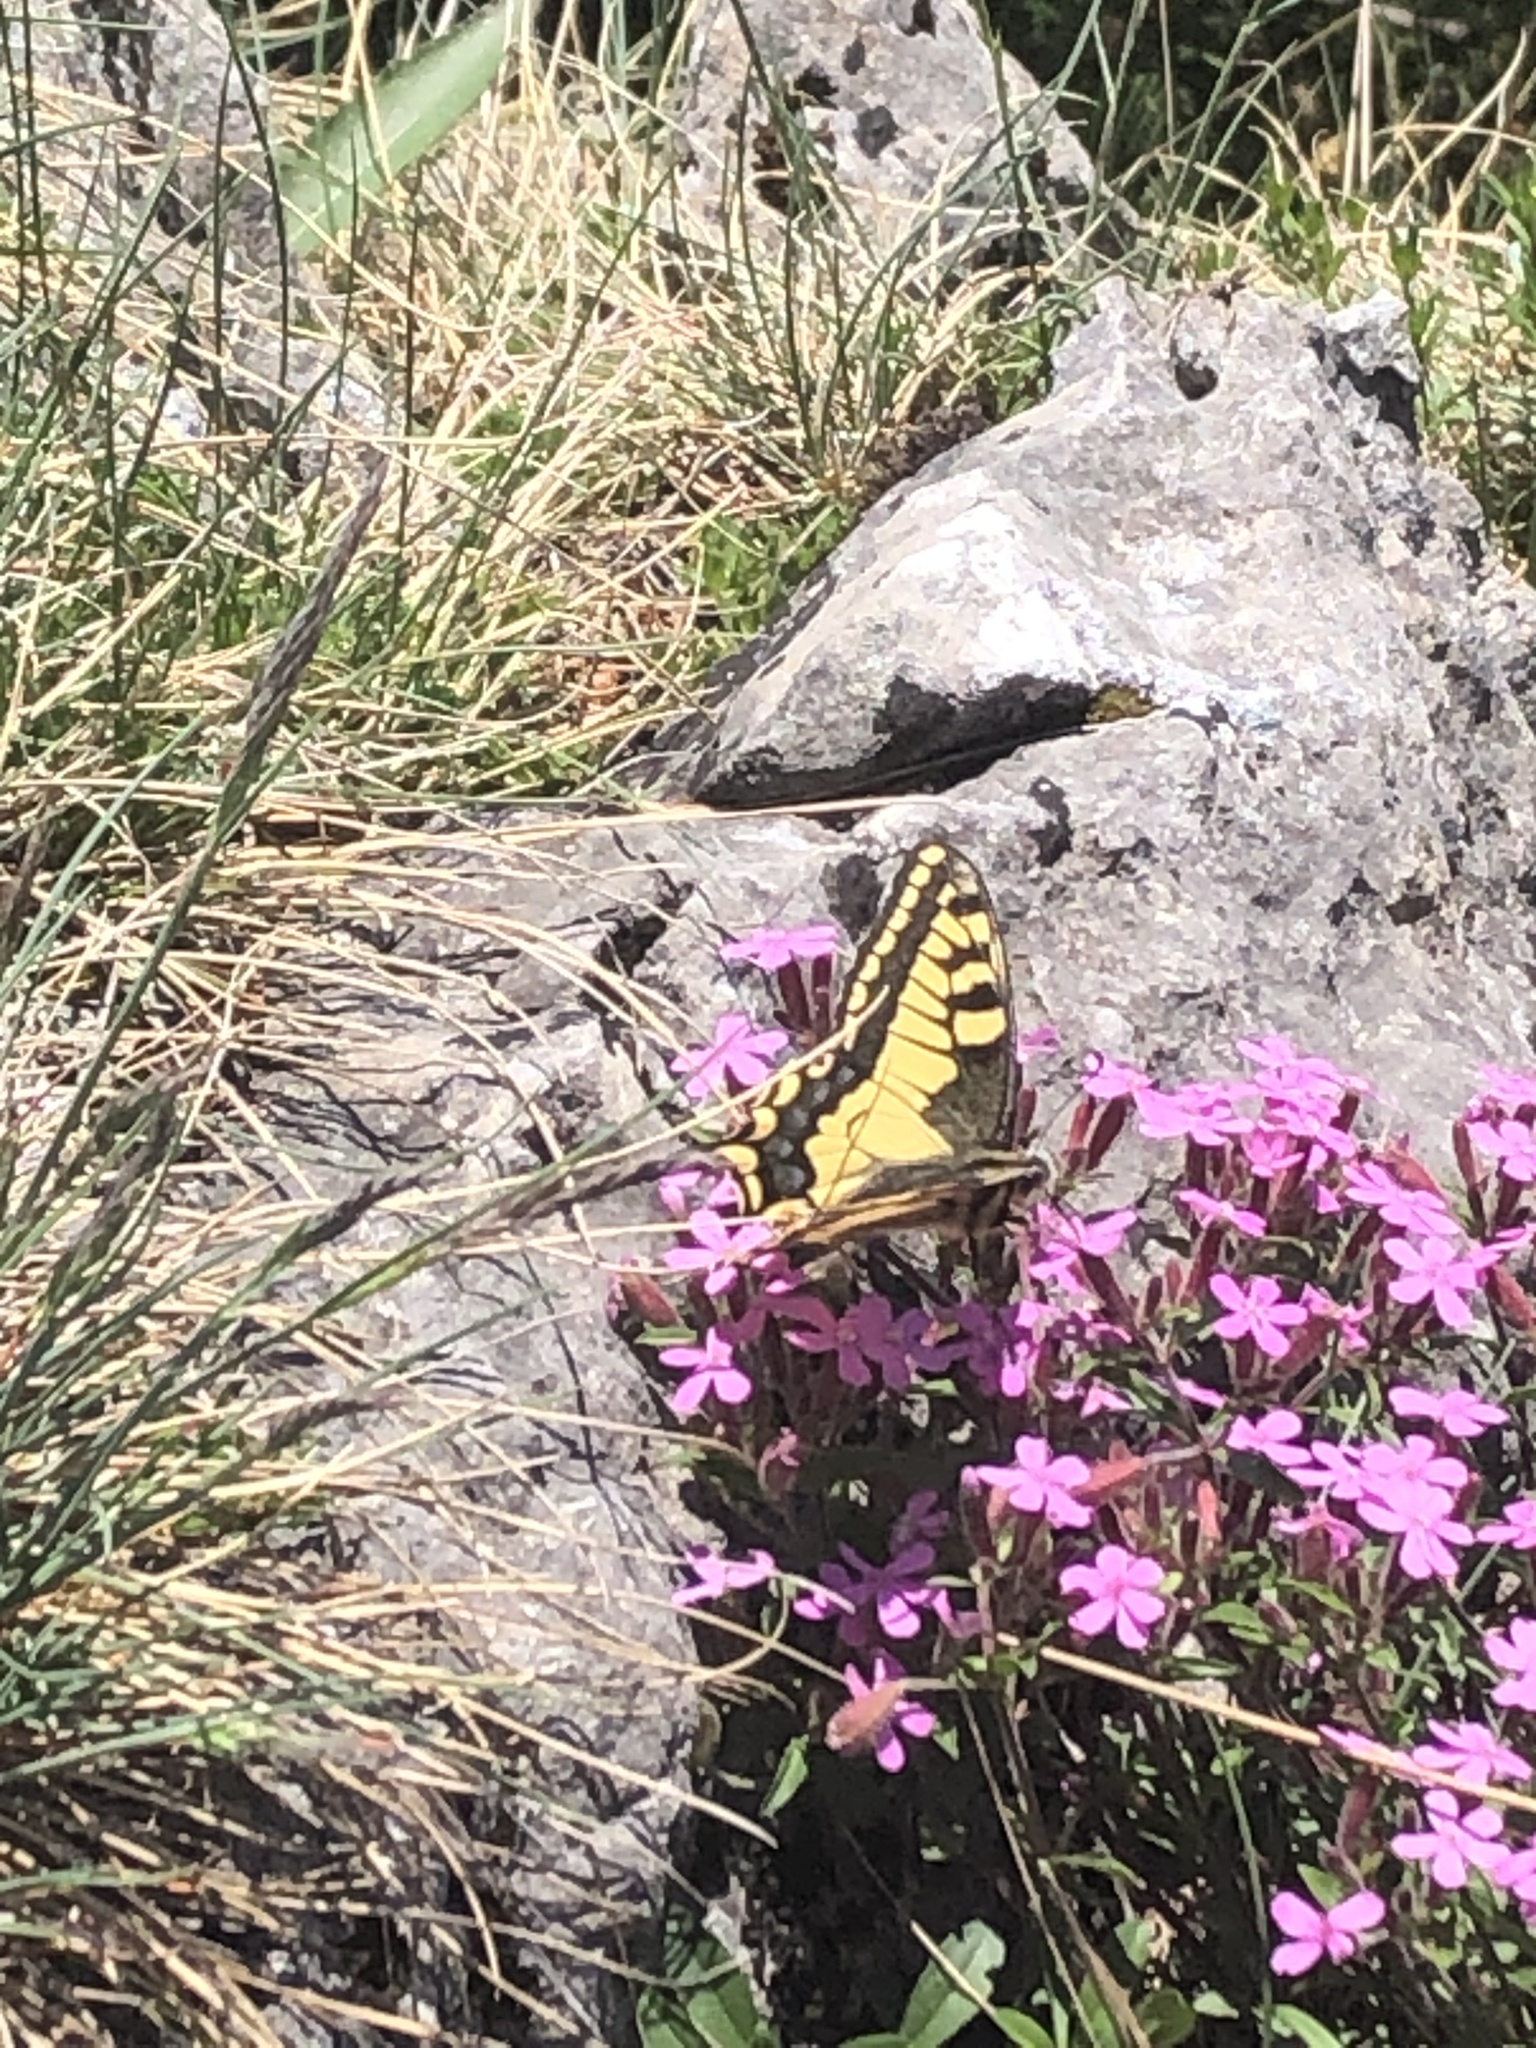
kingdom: Animalia
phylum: Arthropoda
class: Insecta
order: Lepidoptera
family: Papilionidae
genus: Papilio
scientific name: Papilio machaon
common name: Swallowtail
